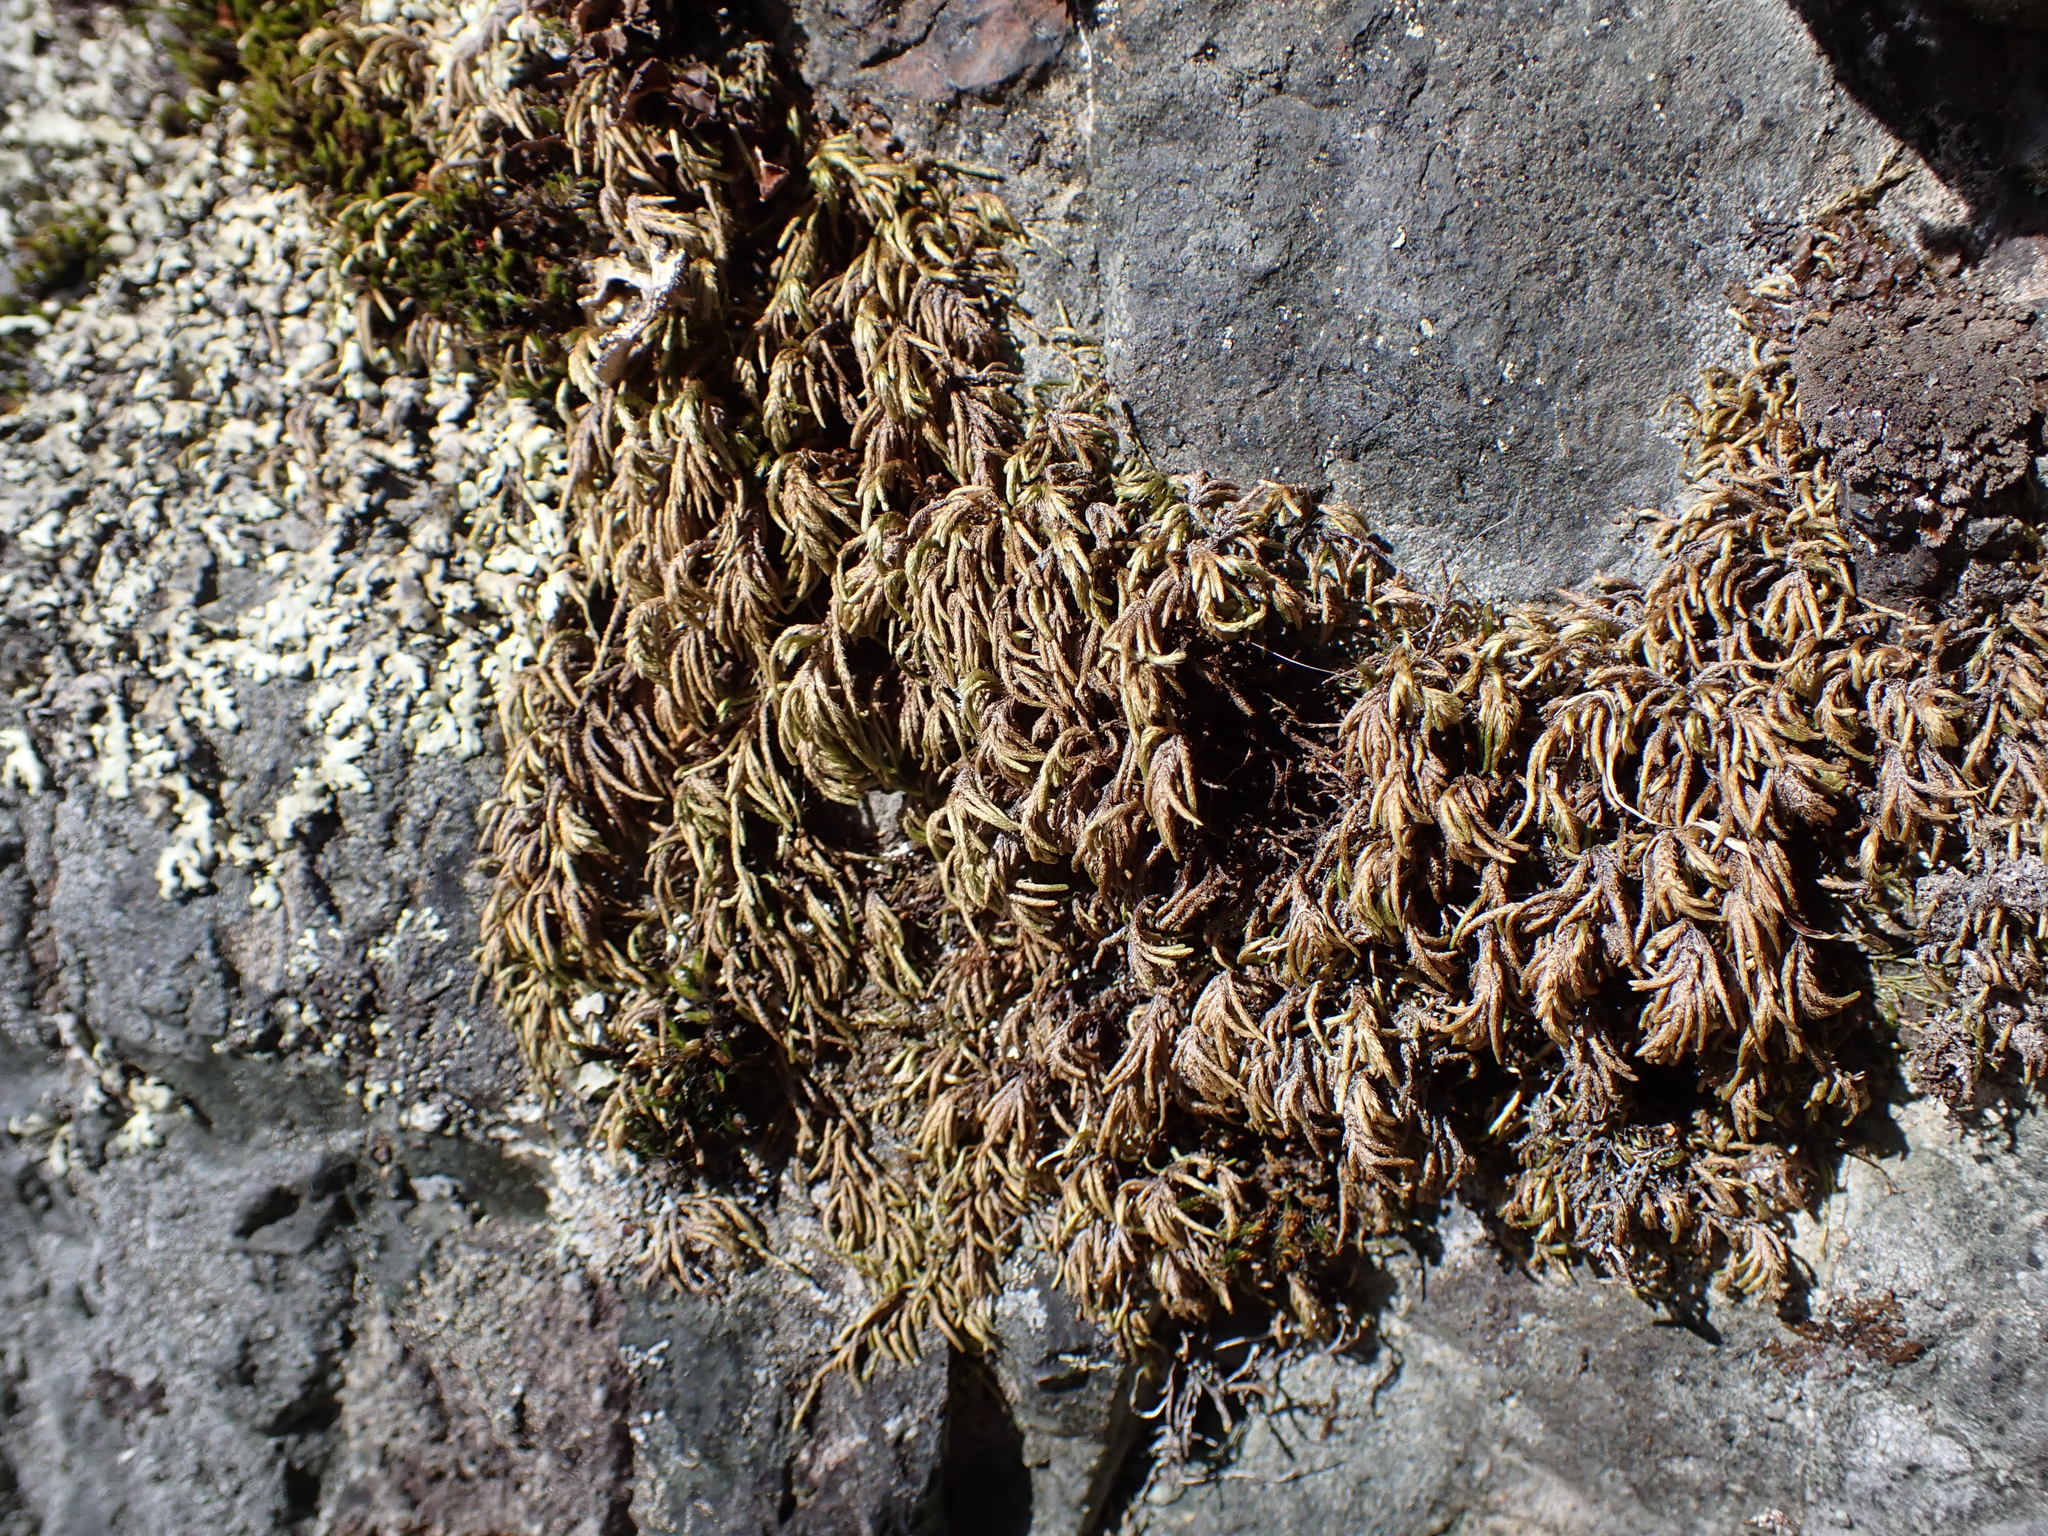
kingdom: Plantae
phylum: Bryophyta
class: Bryopsida
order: Hypnales
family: Lembophyllaceae
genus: Nogopterium
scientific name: Nogopterium gracile
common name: Bird's-foot wing-moss
